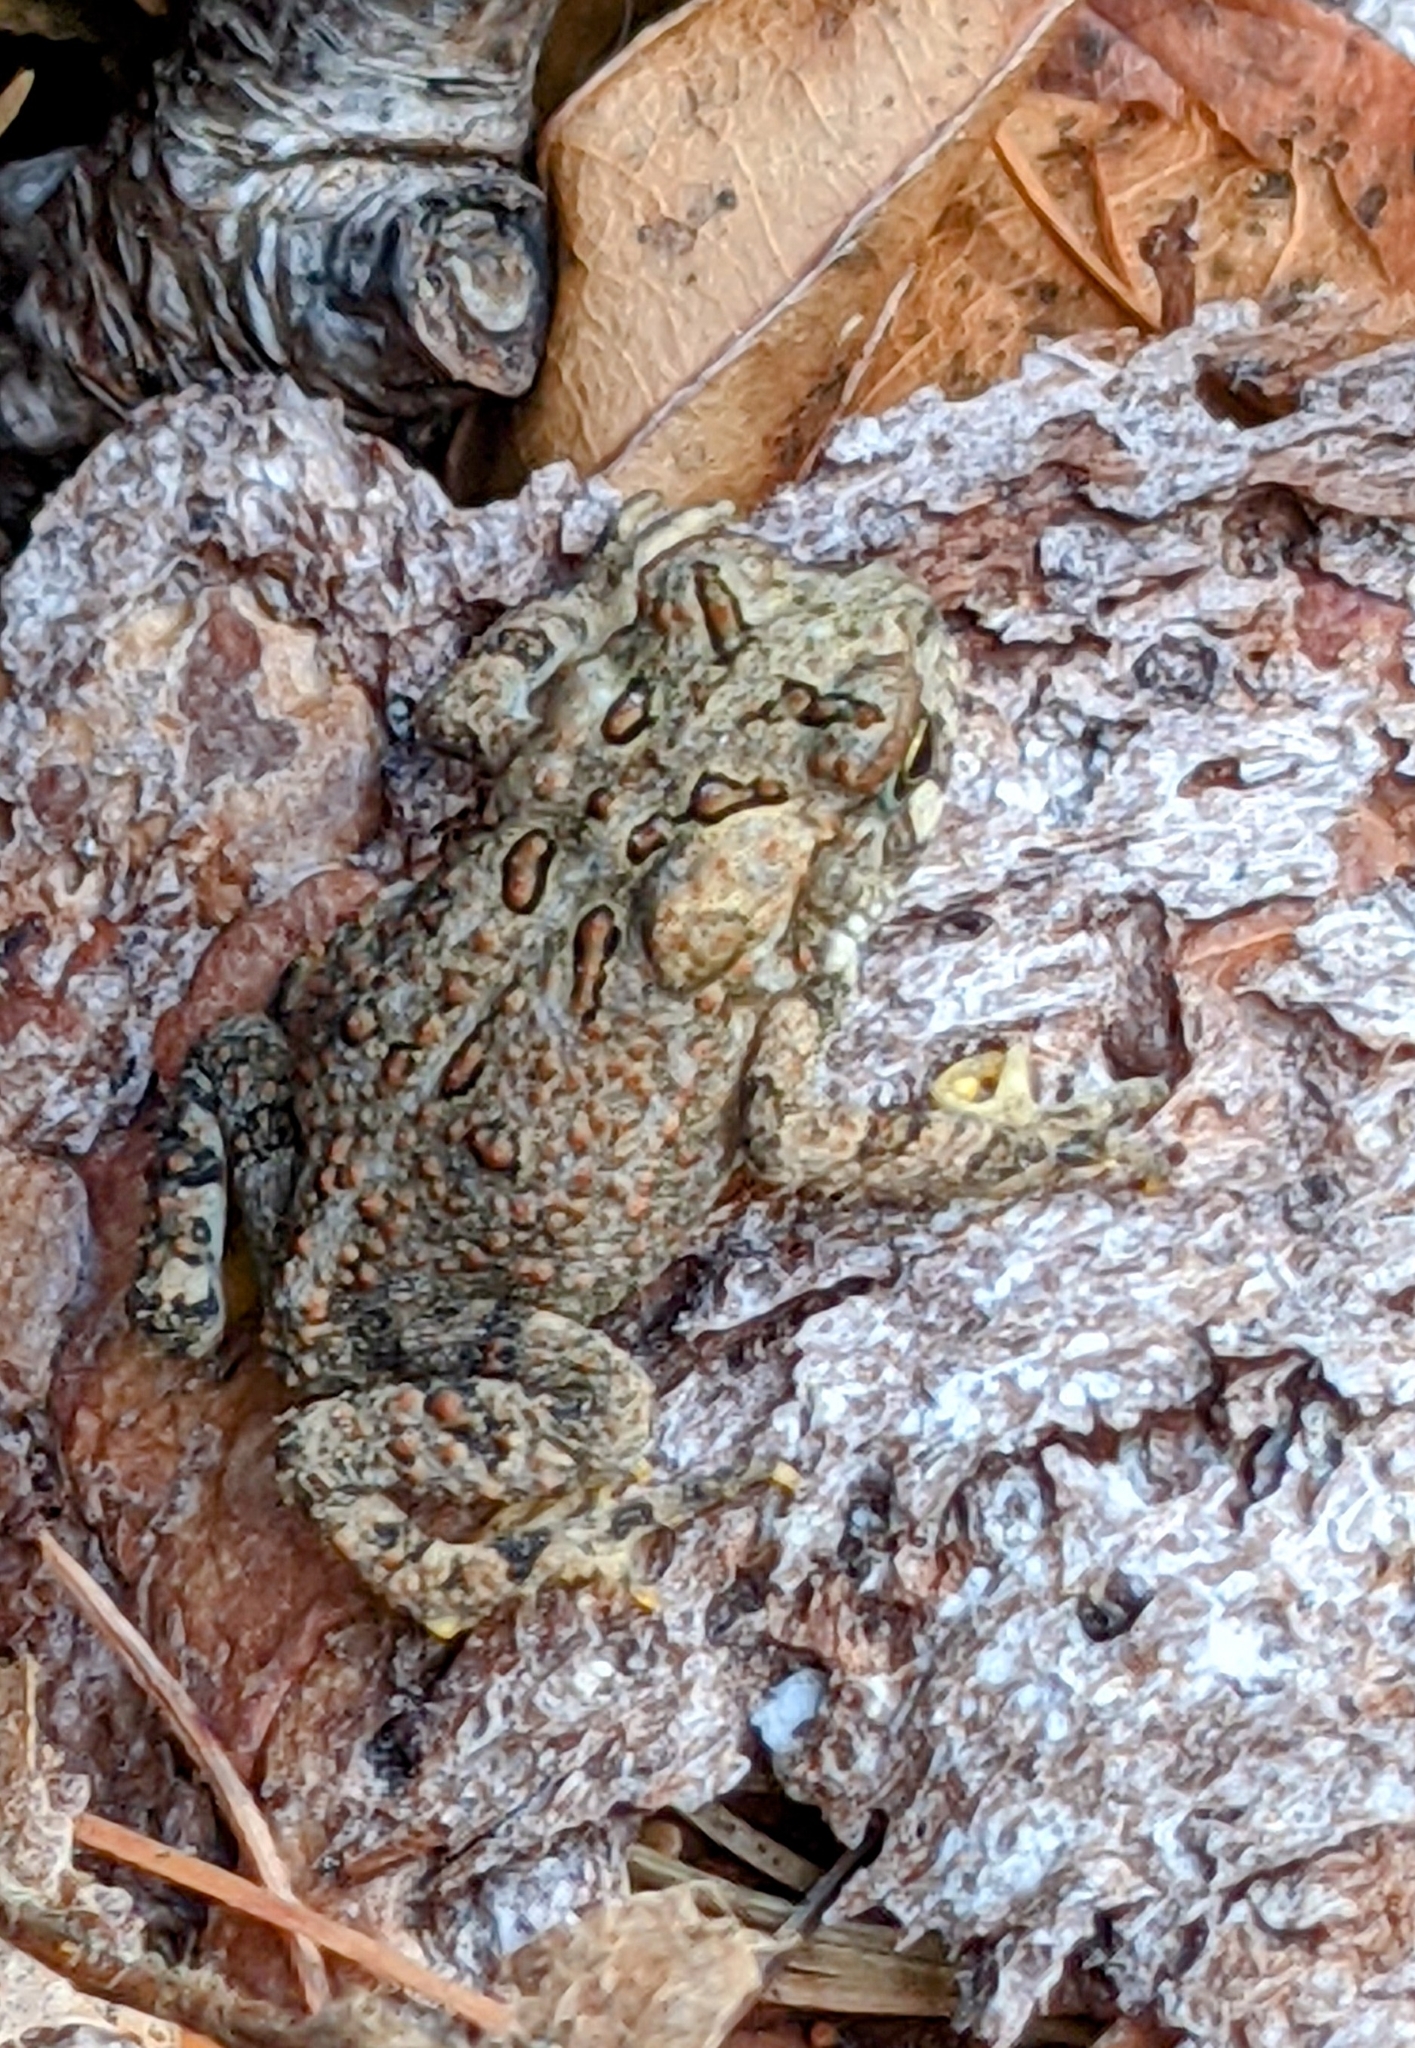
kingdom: Animalia
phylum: Chordata
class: Amphibia
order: Anura
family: Bufonidae
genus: Anaxyrus
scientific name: Anaxyrus americanus
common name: American toad
